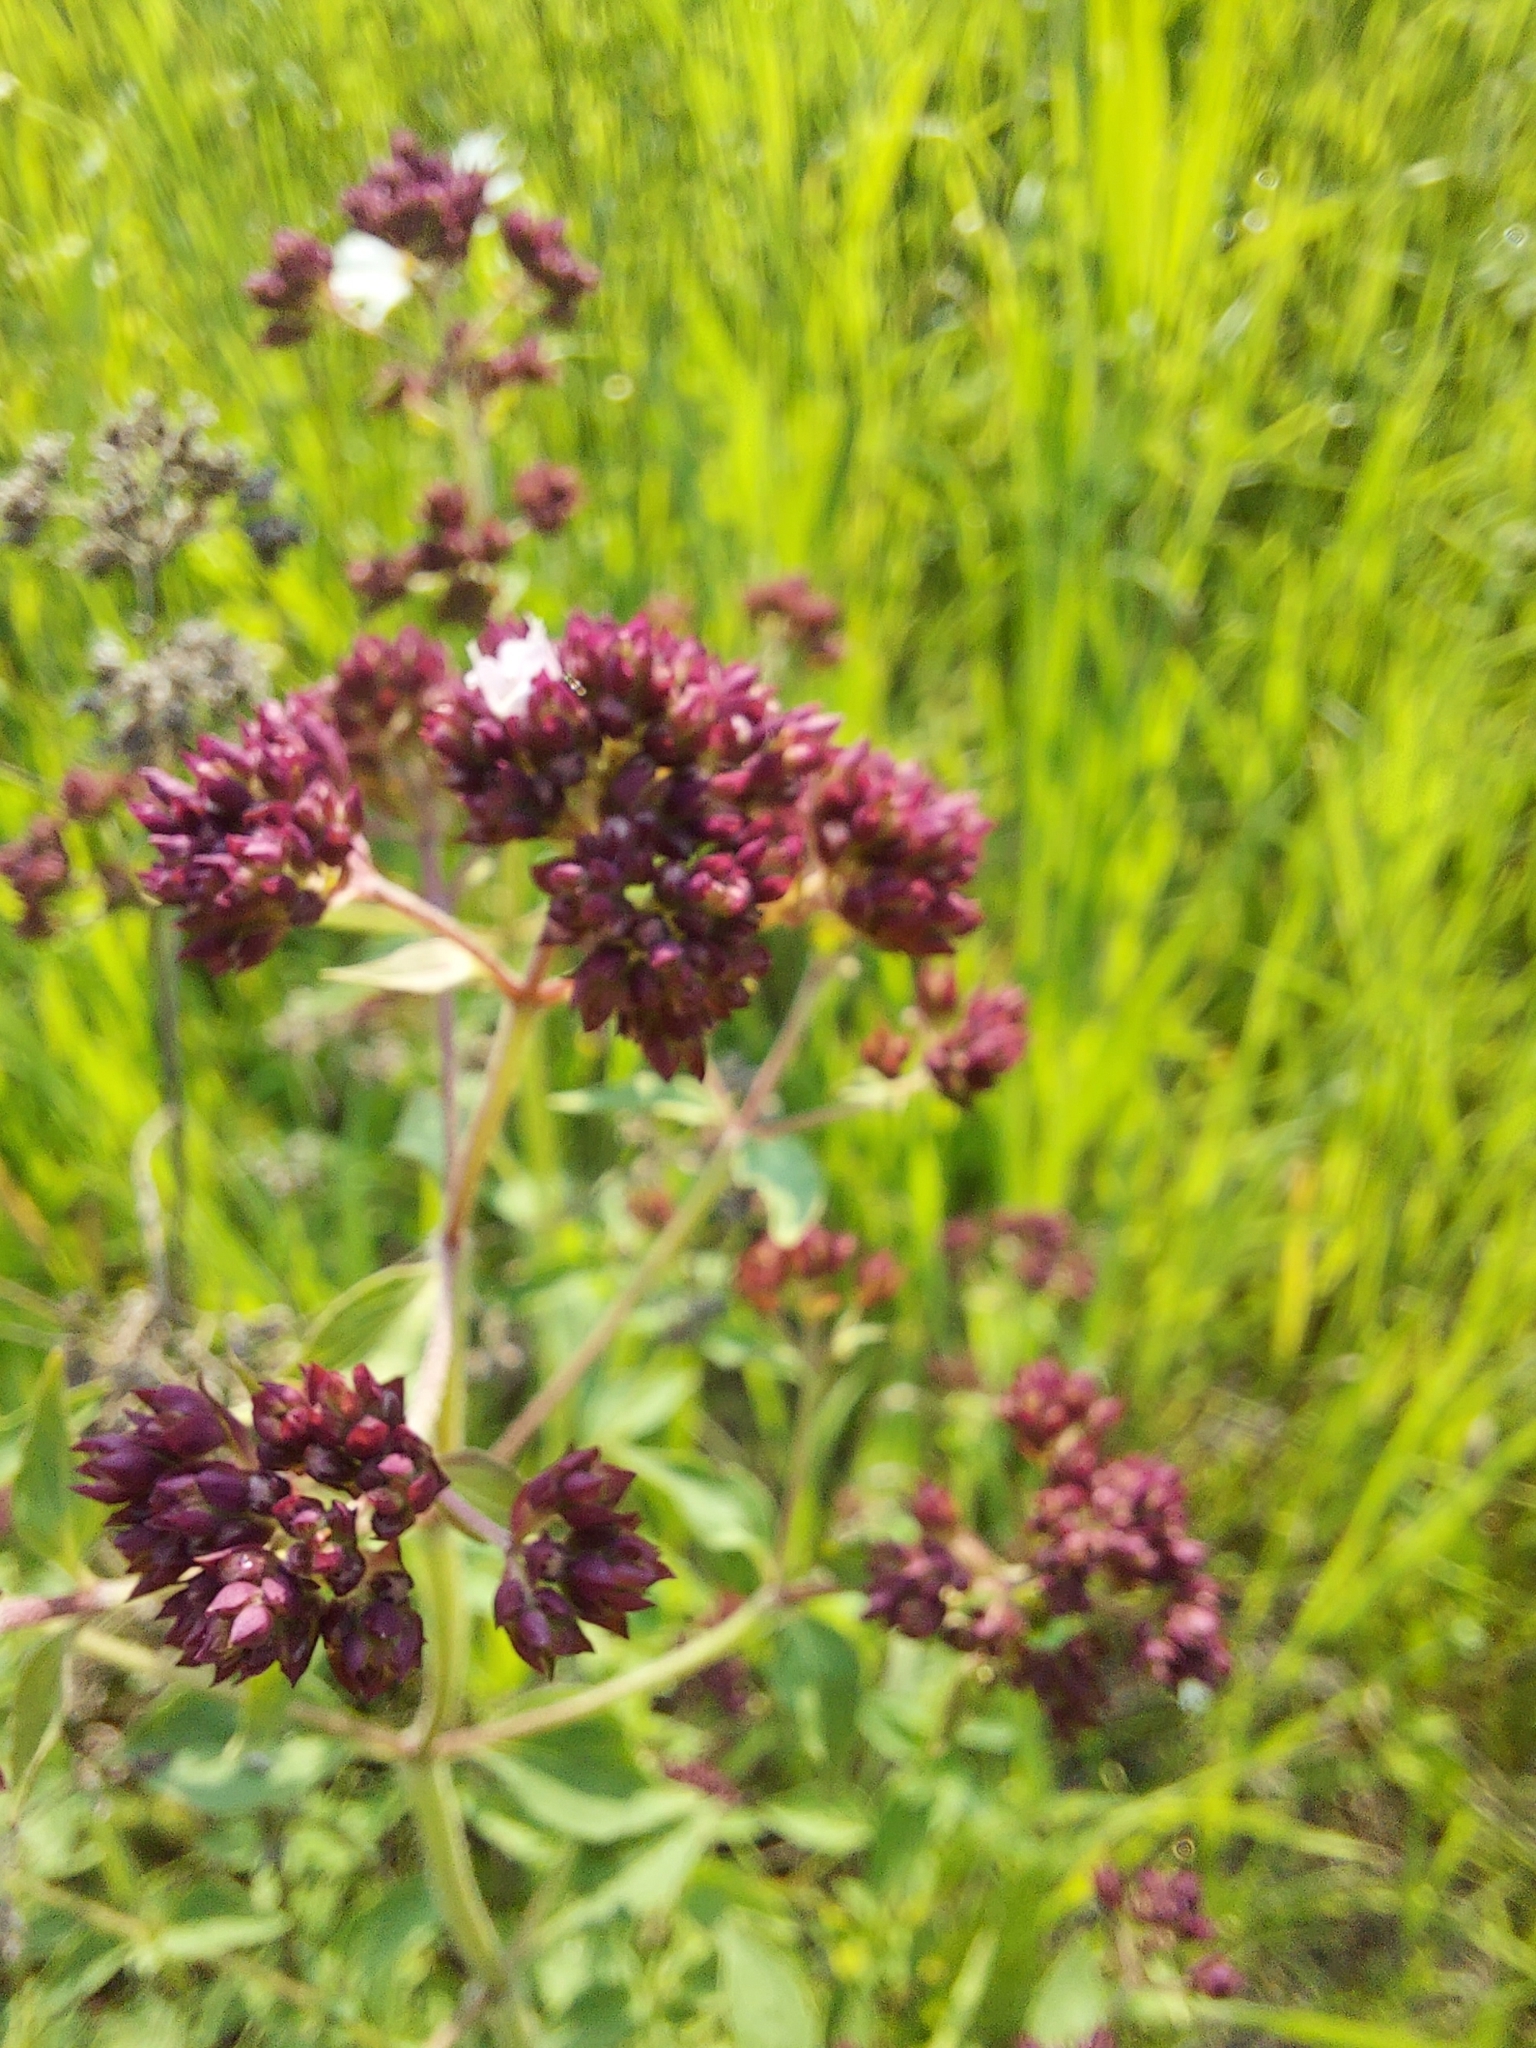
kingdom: Plantae
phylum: Tracheophyta
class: Magnoliopsida
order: Lamiales
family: Lamiaceae
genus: Origanum
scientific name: Origanum vulgare
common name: Wild marjoram
